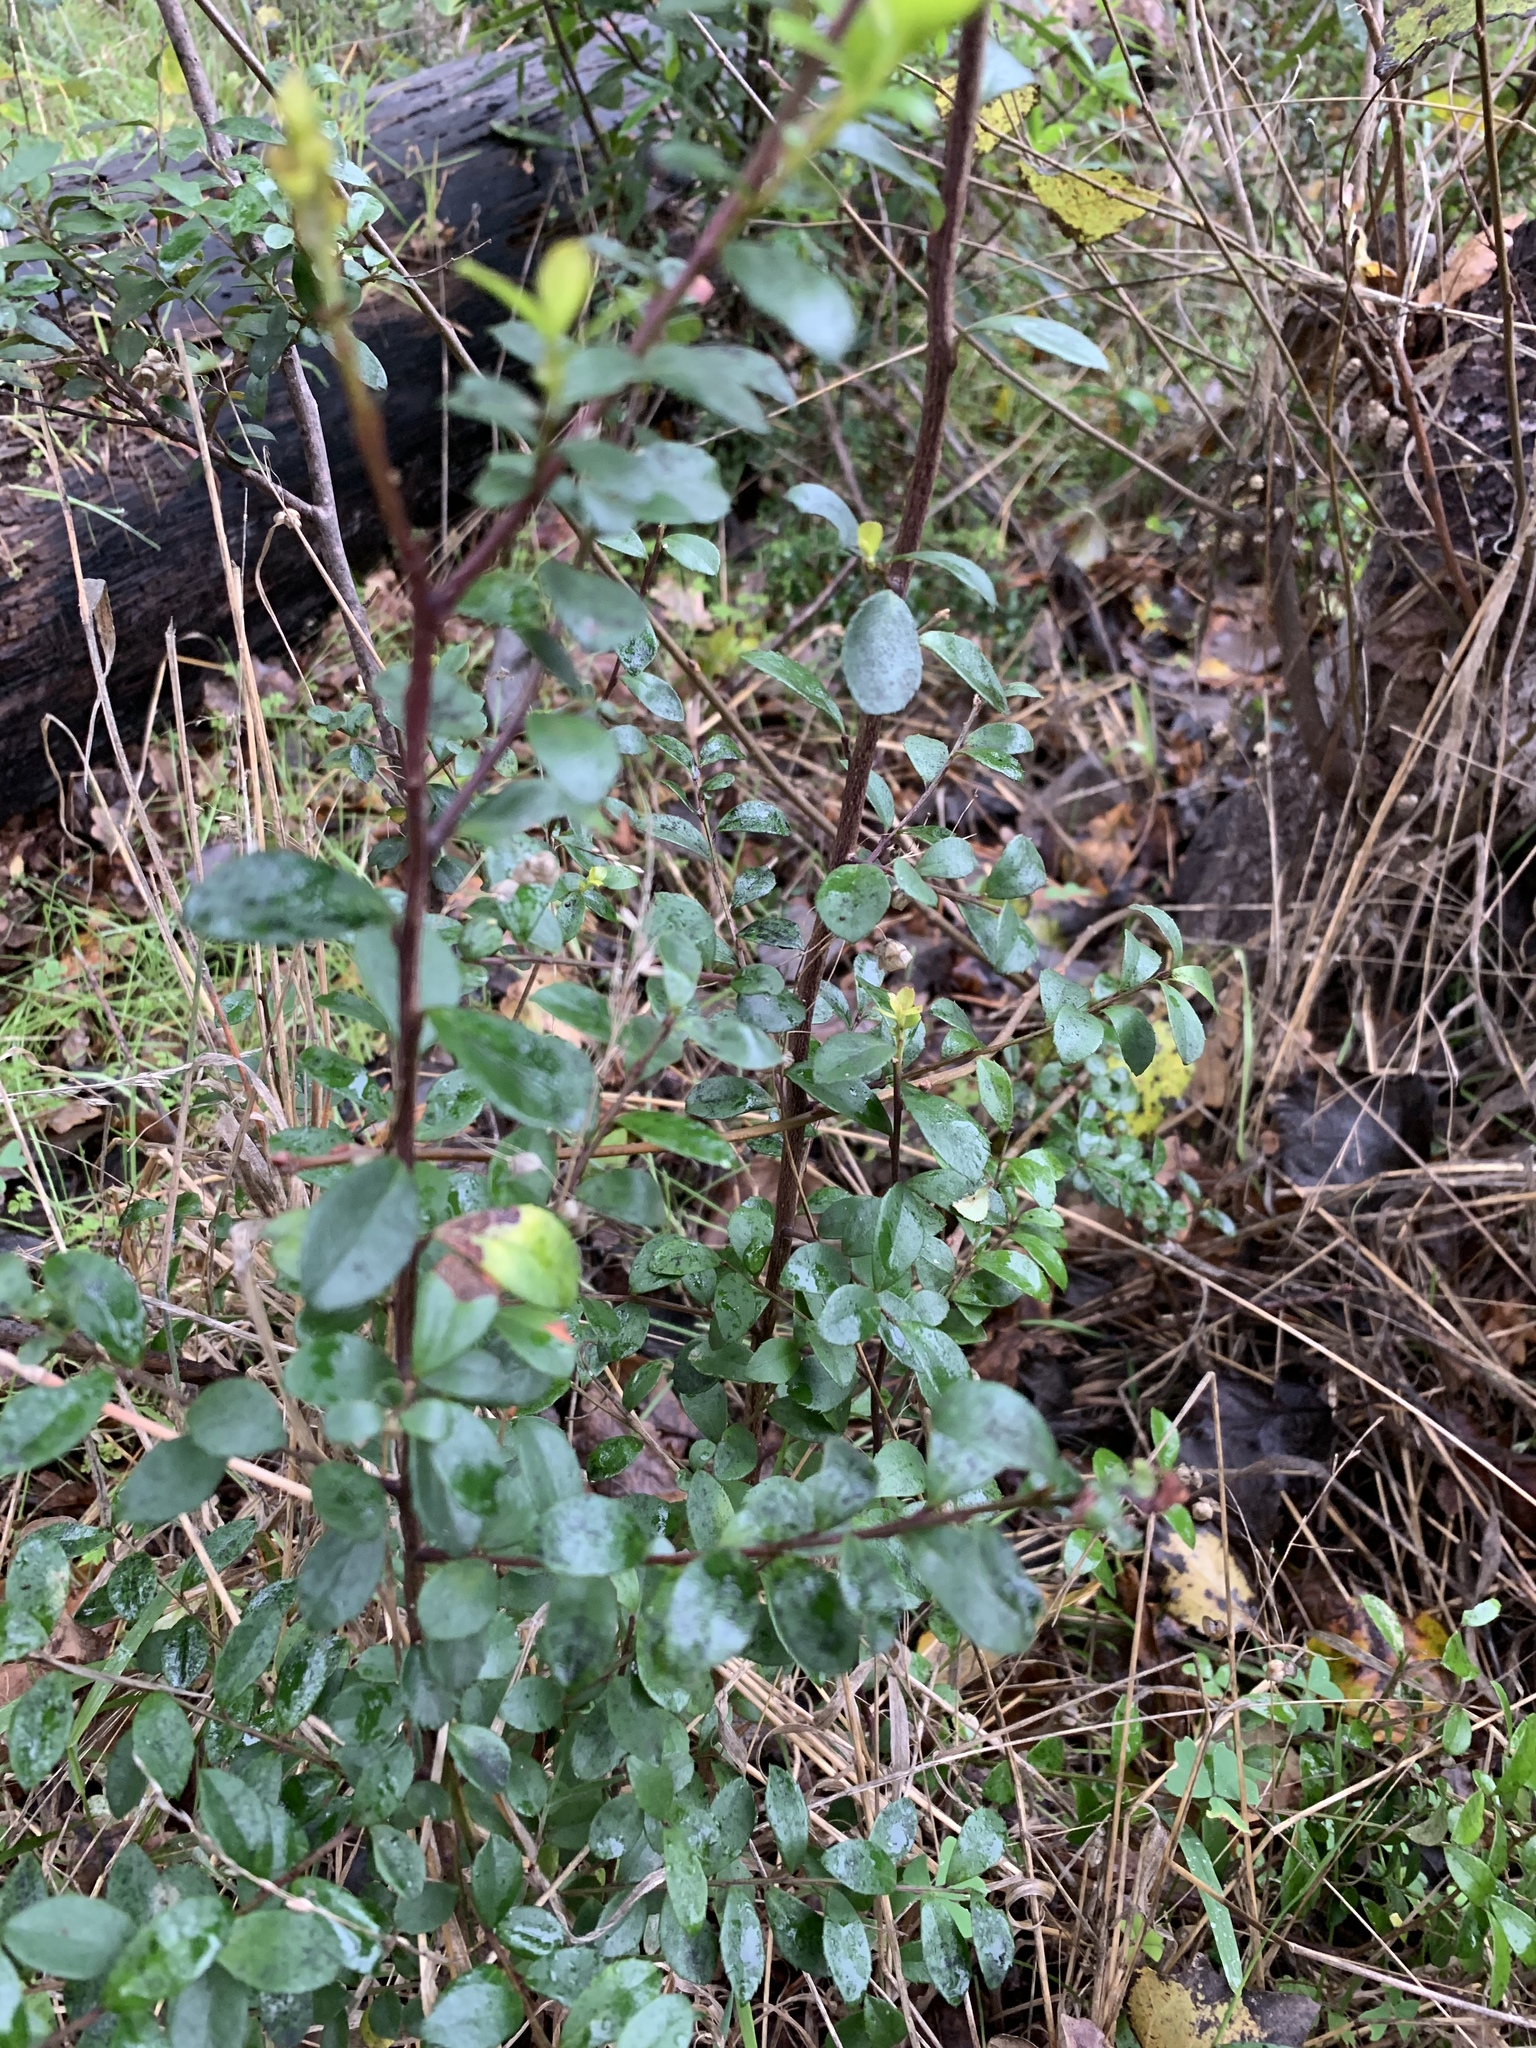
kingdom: Plantae
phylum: Tracheophyta
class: Magnoliopsida
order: Ericales
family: Primulaceae
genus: Myrsine
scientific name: Myrsine africana
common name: African-boxwood
